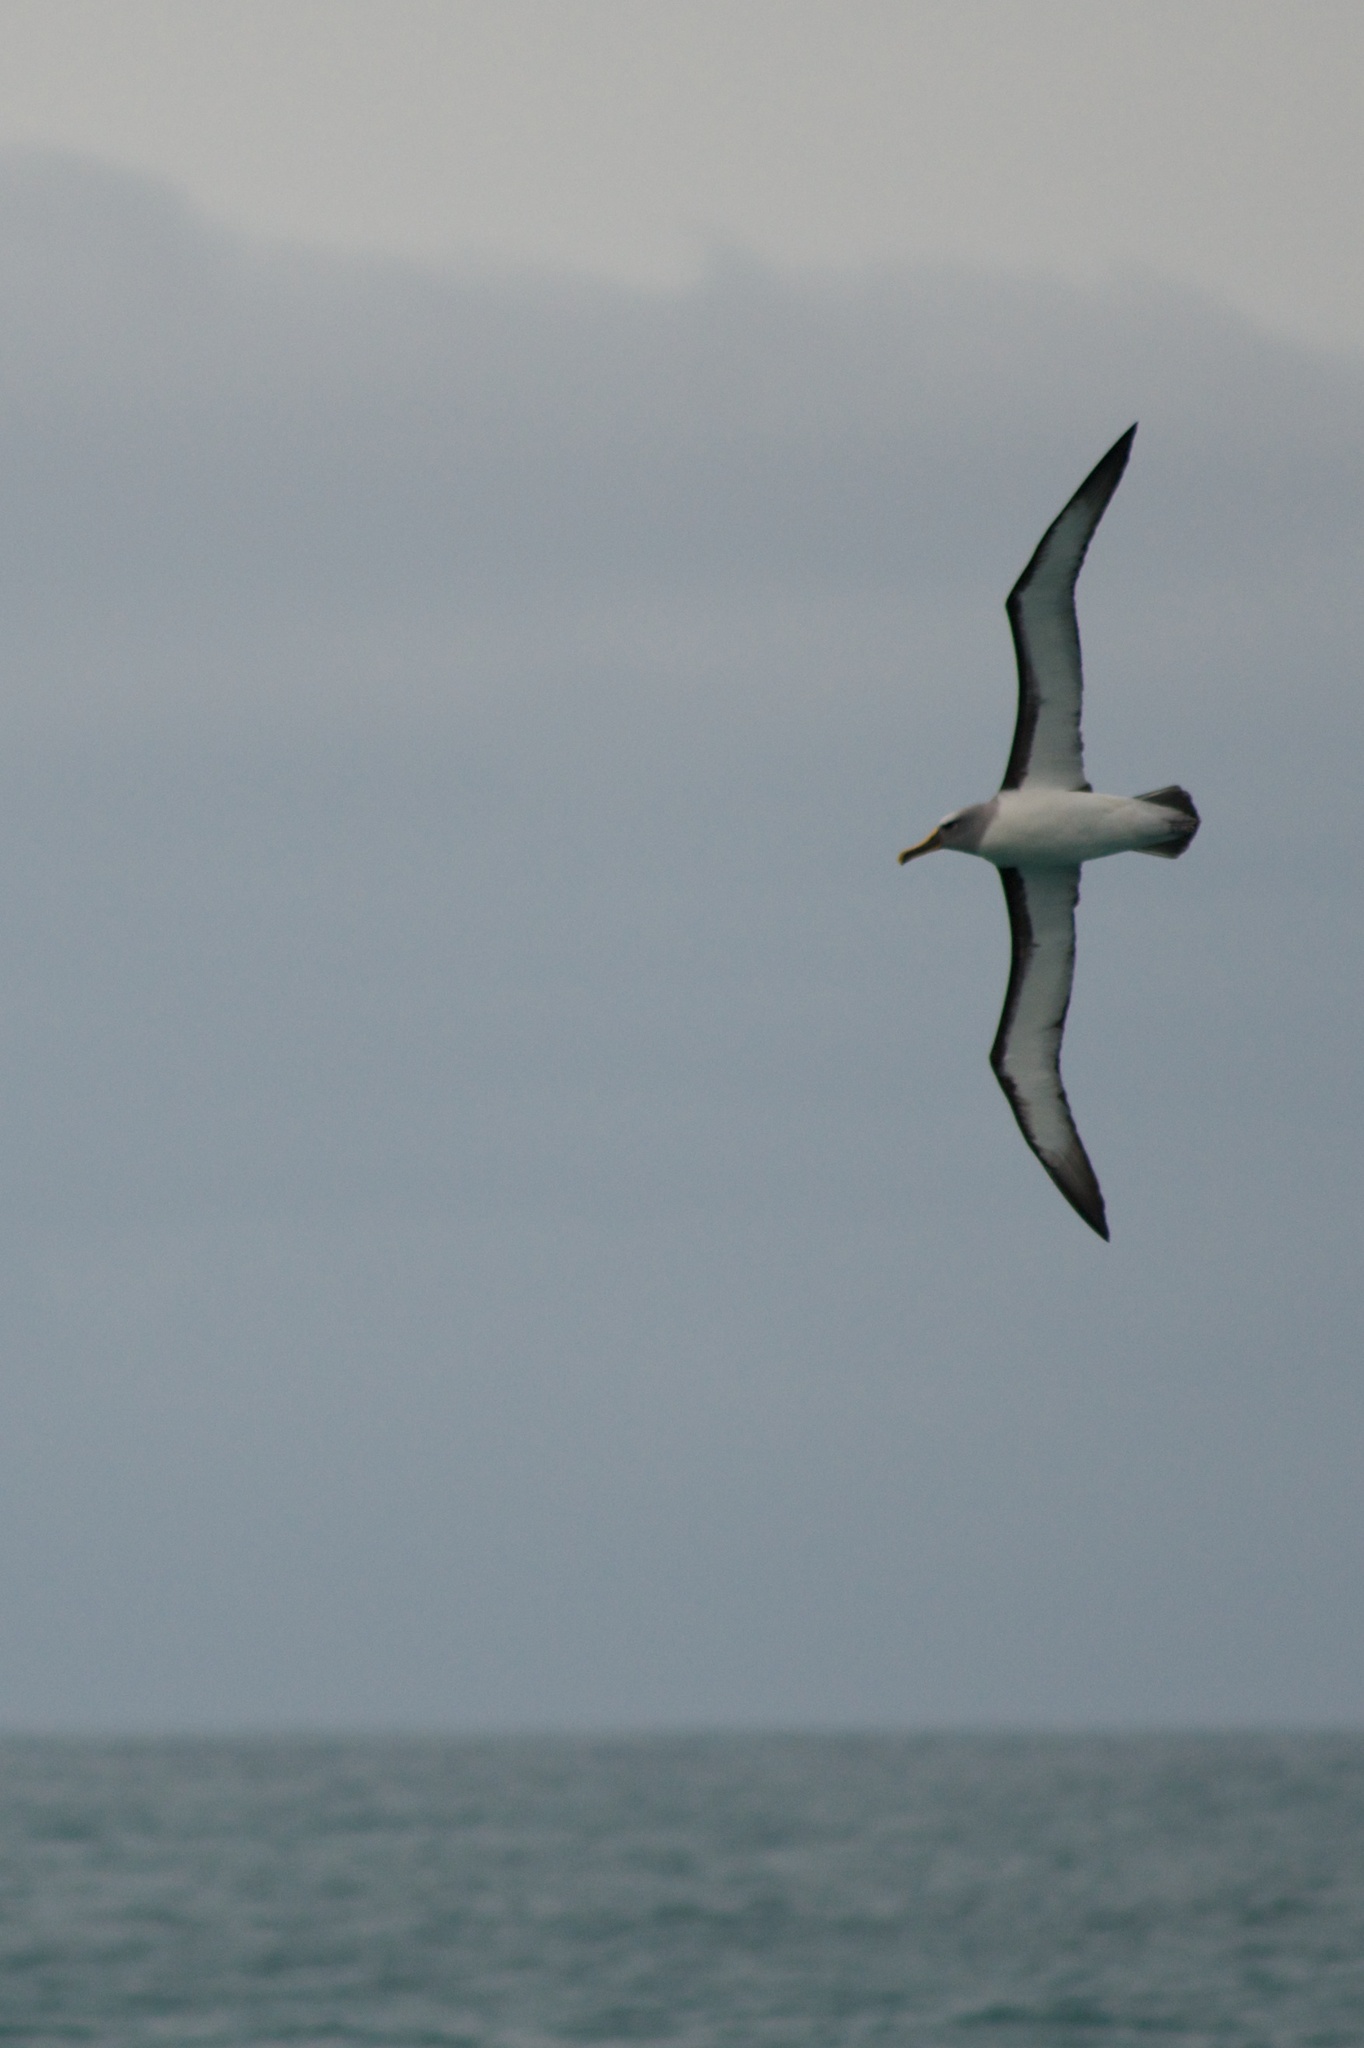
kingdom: Animalia
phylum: Chordata
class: Aves
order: Procellariiformes
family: Diomedeidae
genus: Thalassarche
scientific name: Thalassarche bulleri
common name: Buller's albatross
